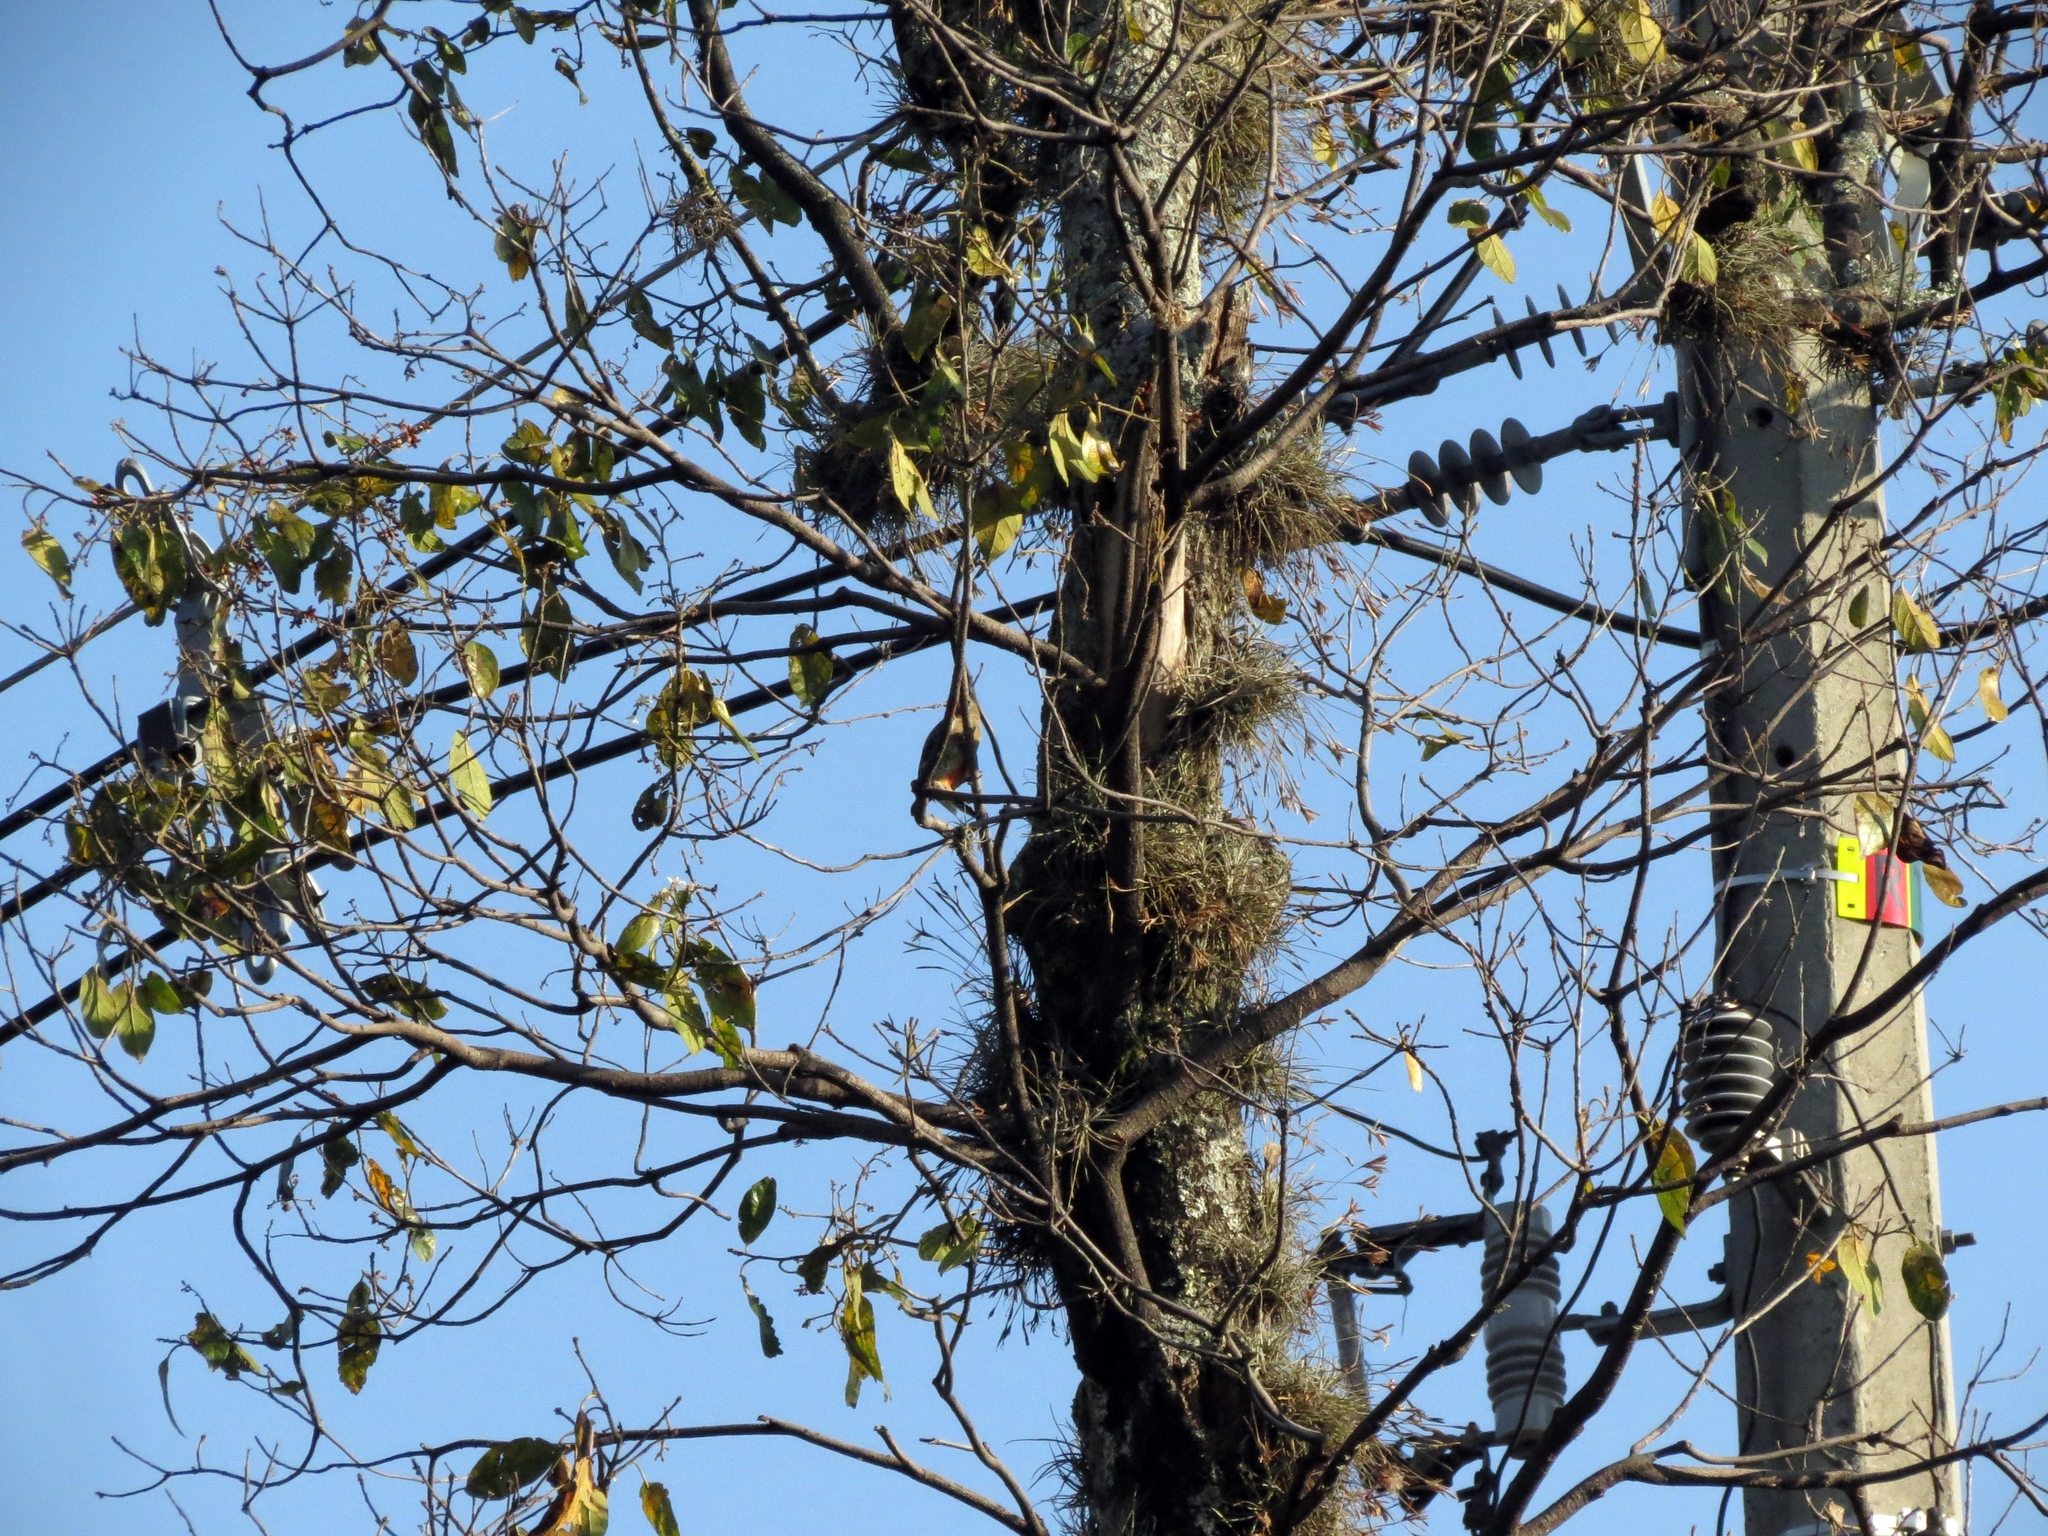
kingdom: Animalia
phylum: Chordata
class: Aves
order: Piciformes
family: Picidae
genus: Melanerpes
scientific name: Melanerpes rubricapillus
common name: Red-crowned woodpecker
